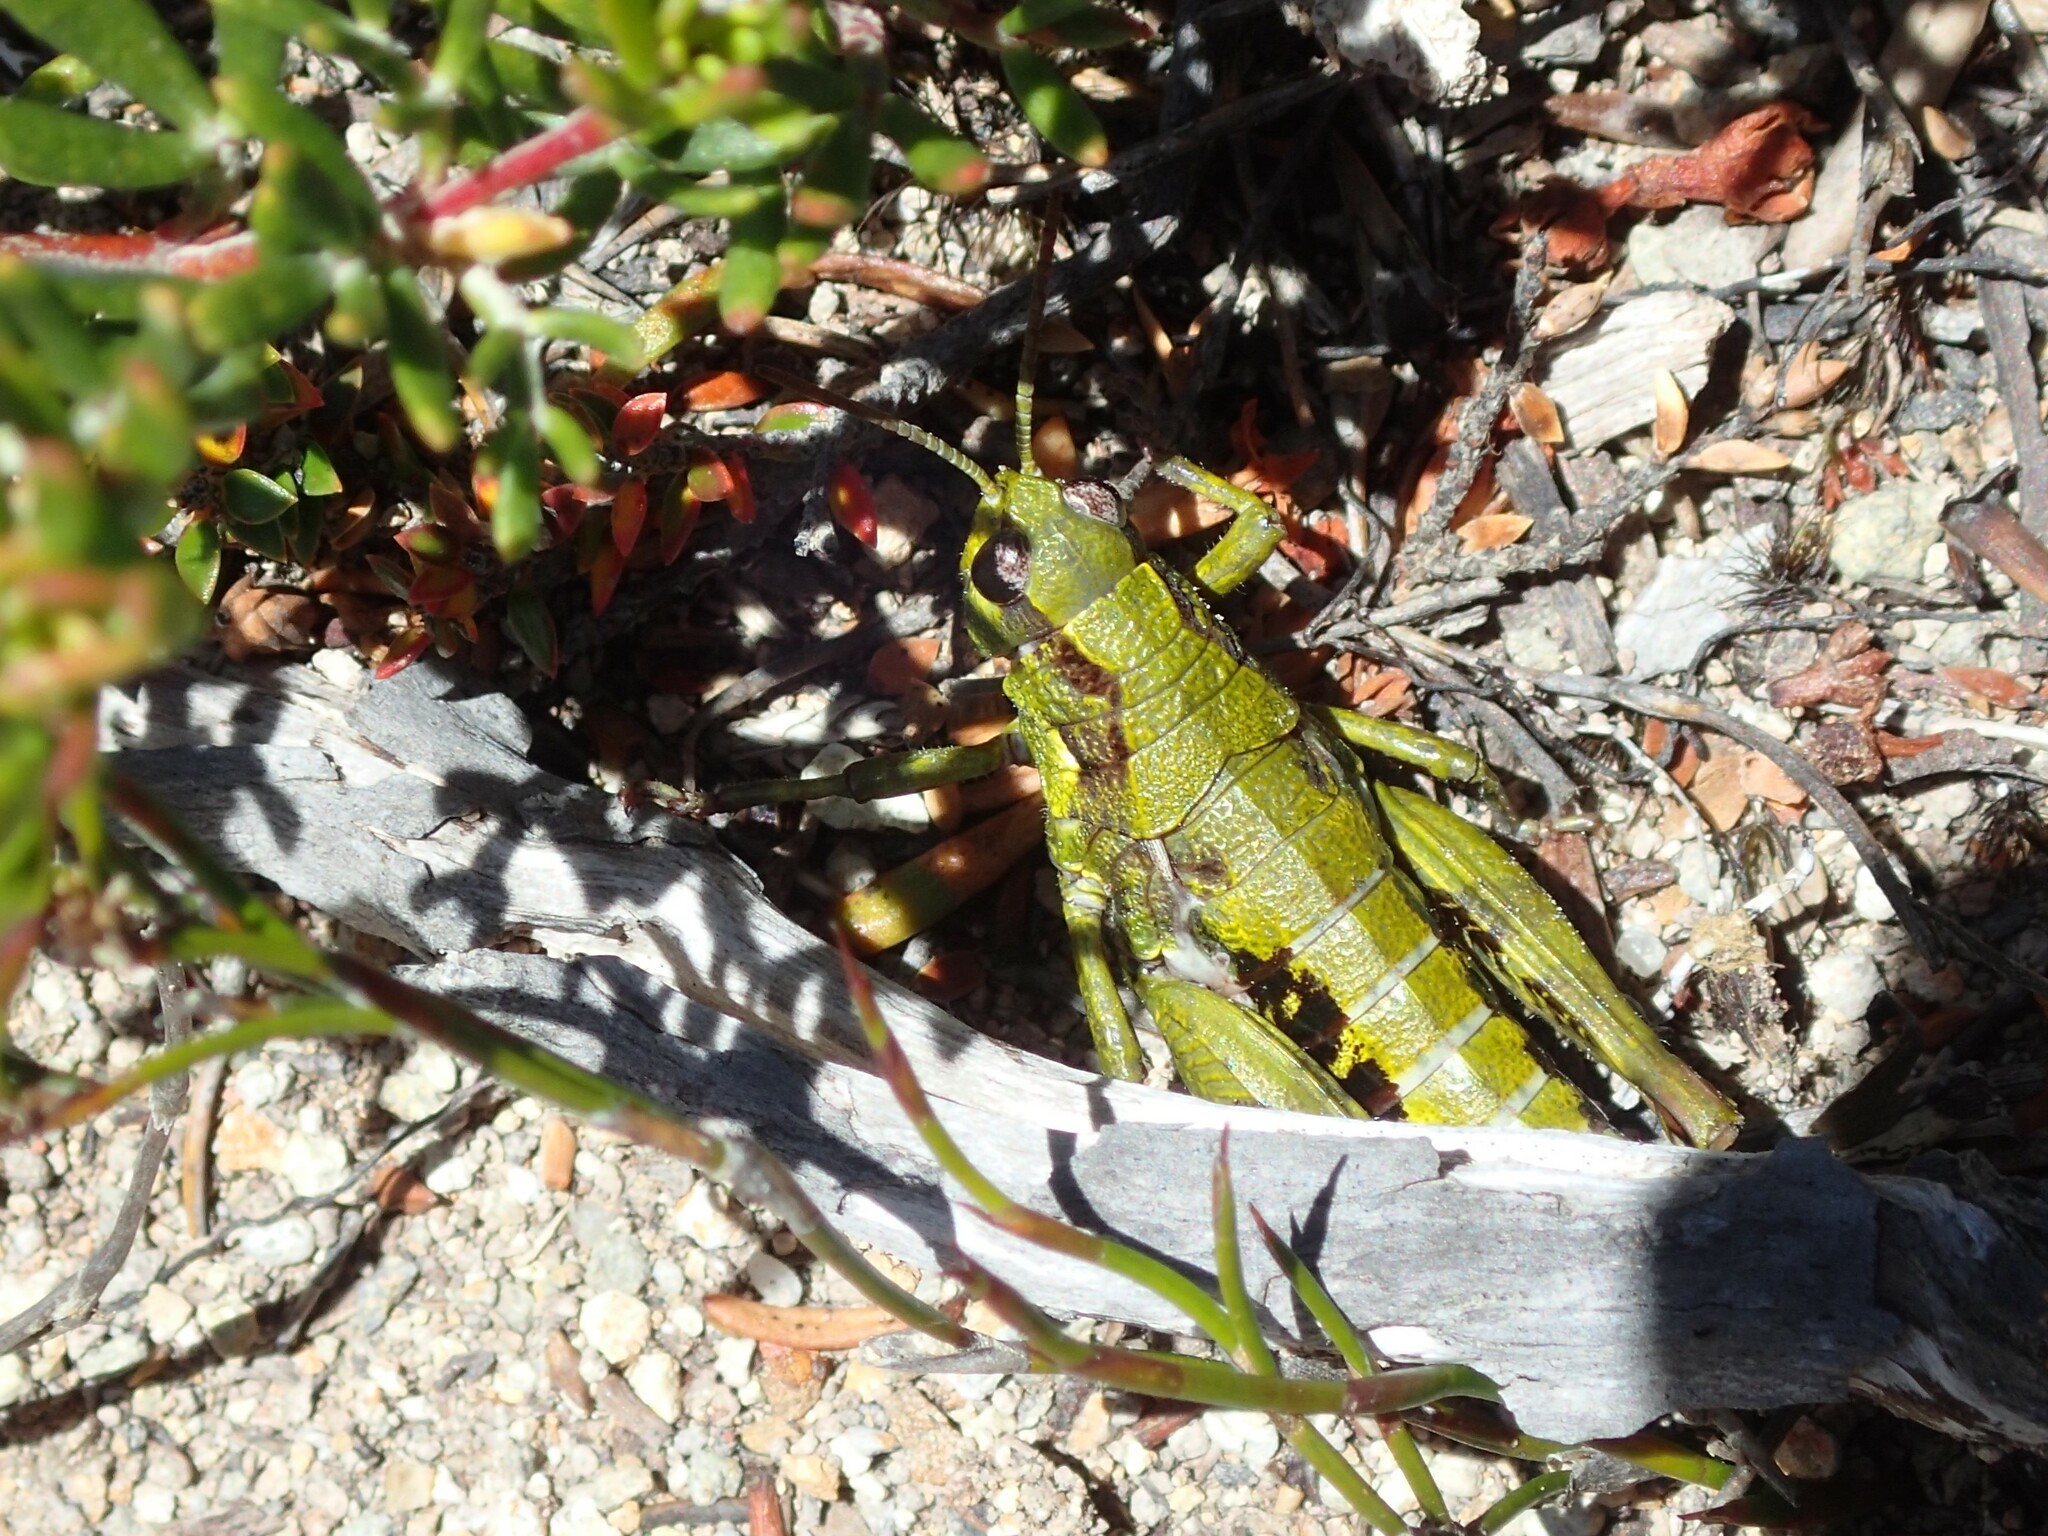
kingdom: Animalia
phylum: Arthropoda
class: Insecta
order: Orthoptera
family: Acrididae
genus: Tasmaniacris
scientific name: Tasmaniacris tasmaniensis
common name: Tasmanian grasshopper
